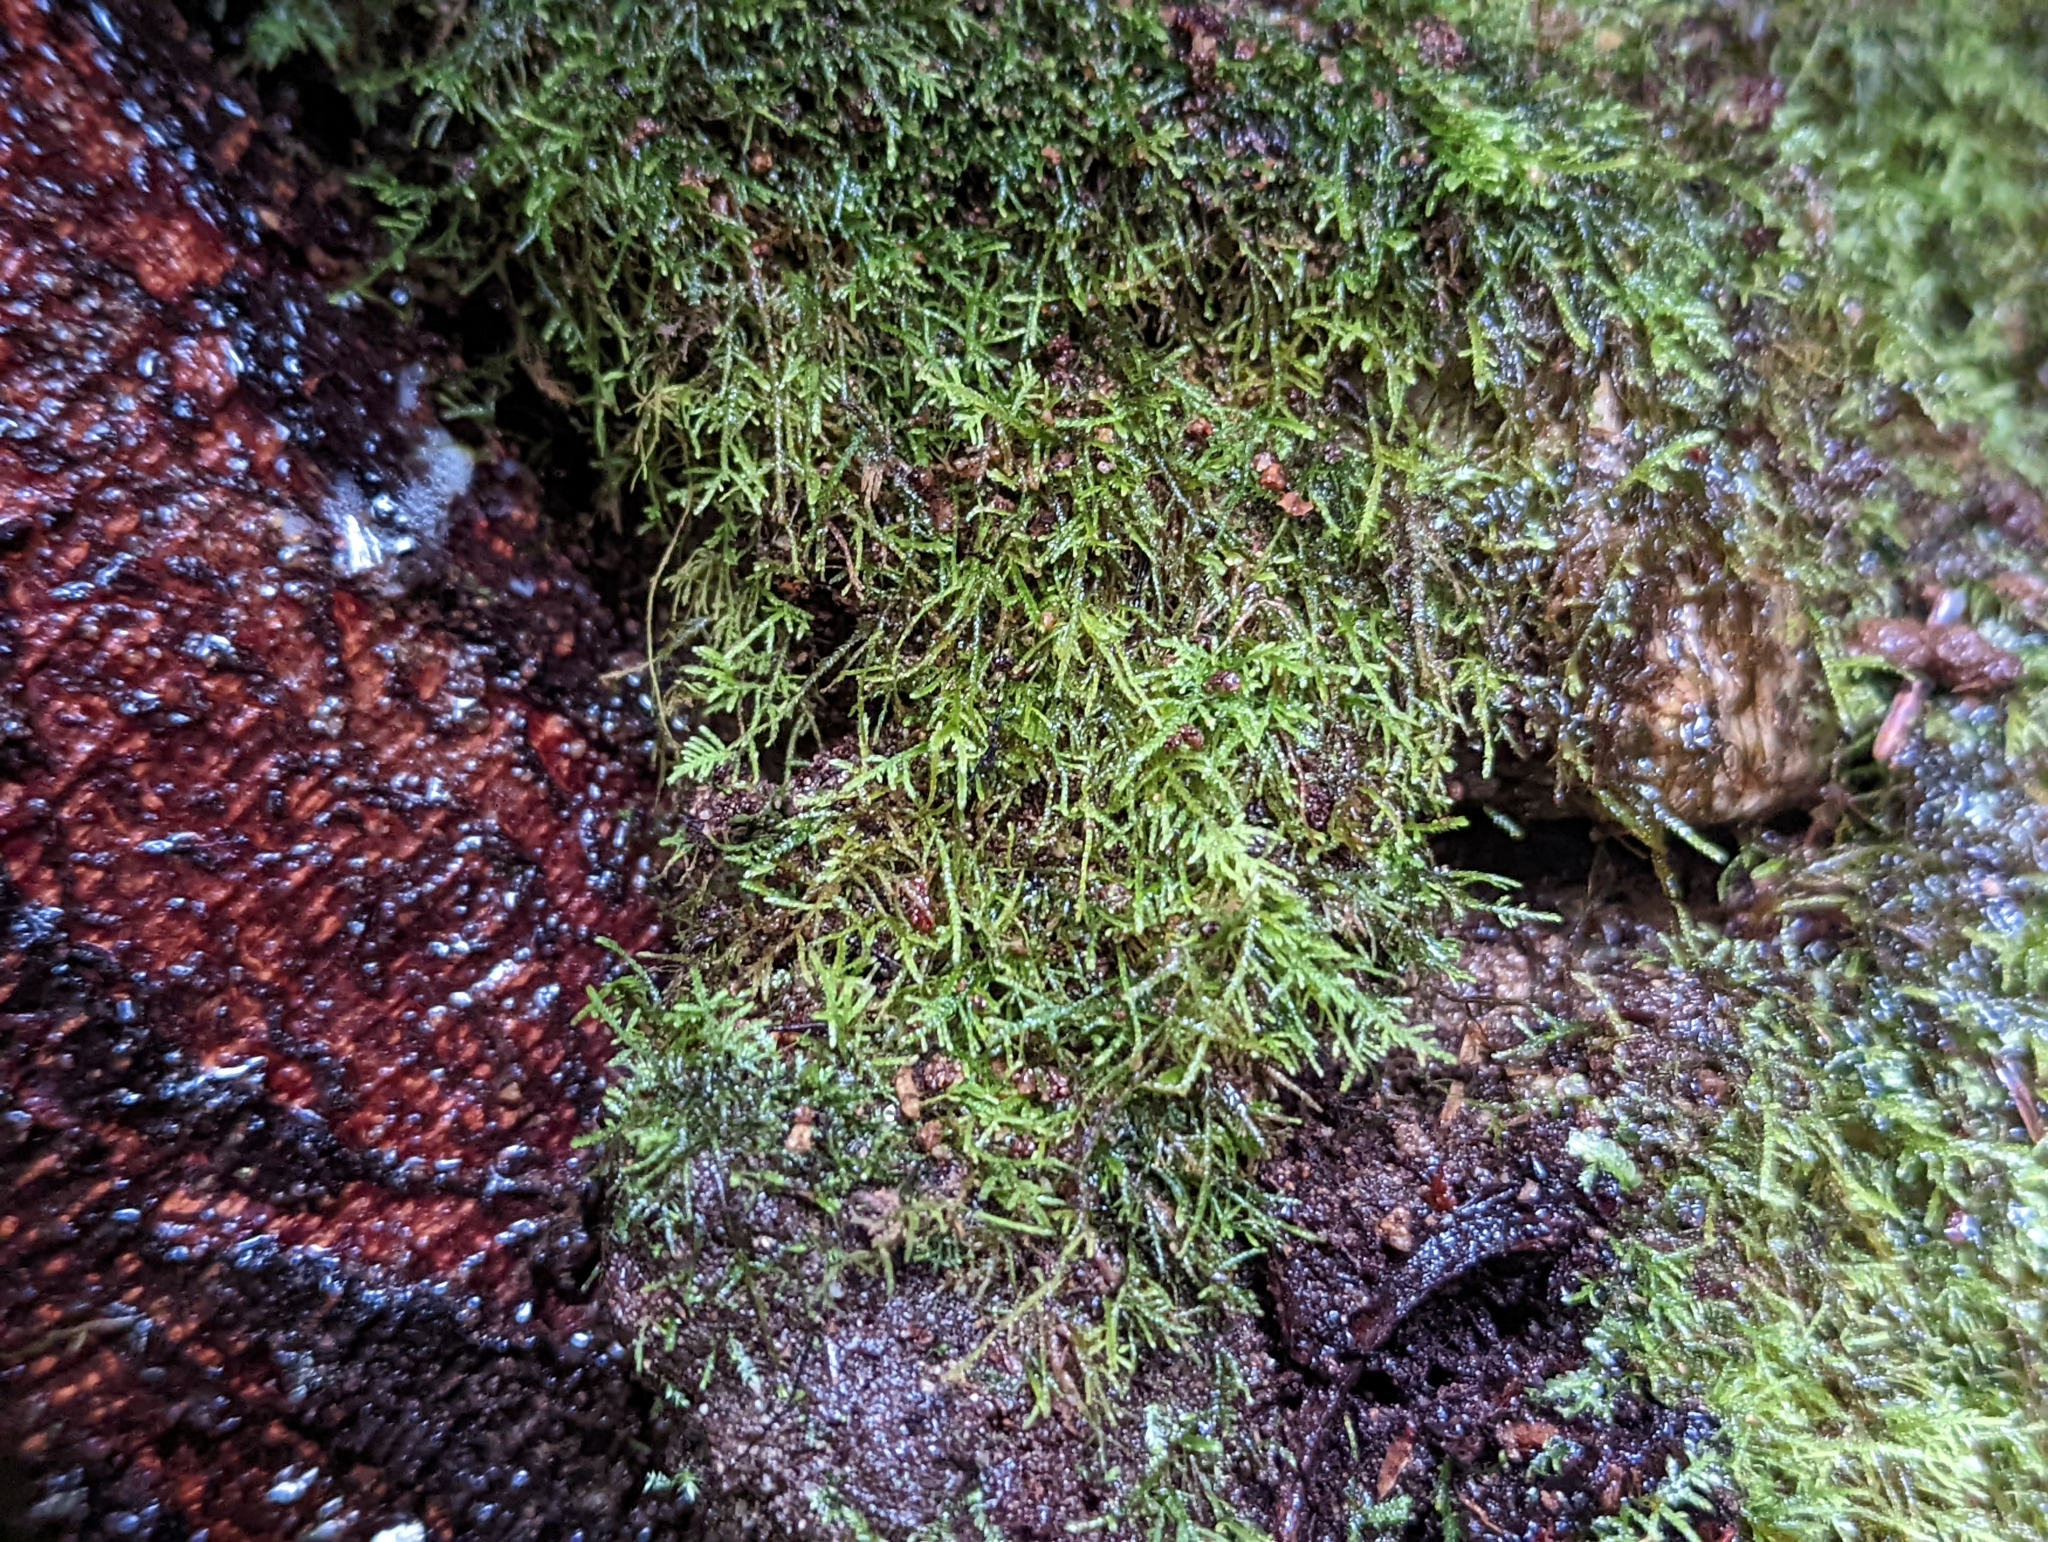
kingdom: Plantae
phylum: Bryophyta
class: Bryopsida
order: Hypnales
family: Lembophyllaceae
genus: Heterocladium
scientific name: Heterocladium macounii
